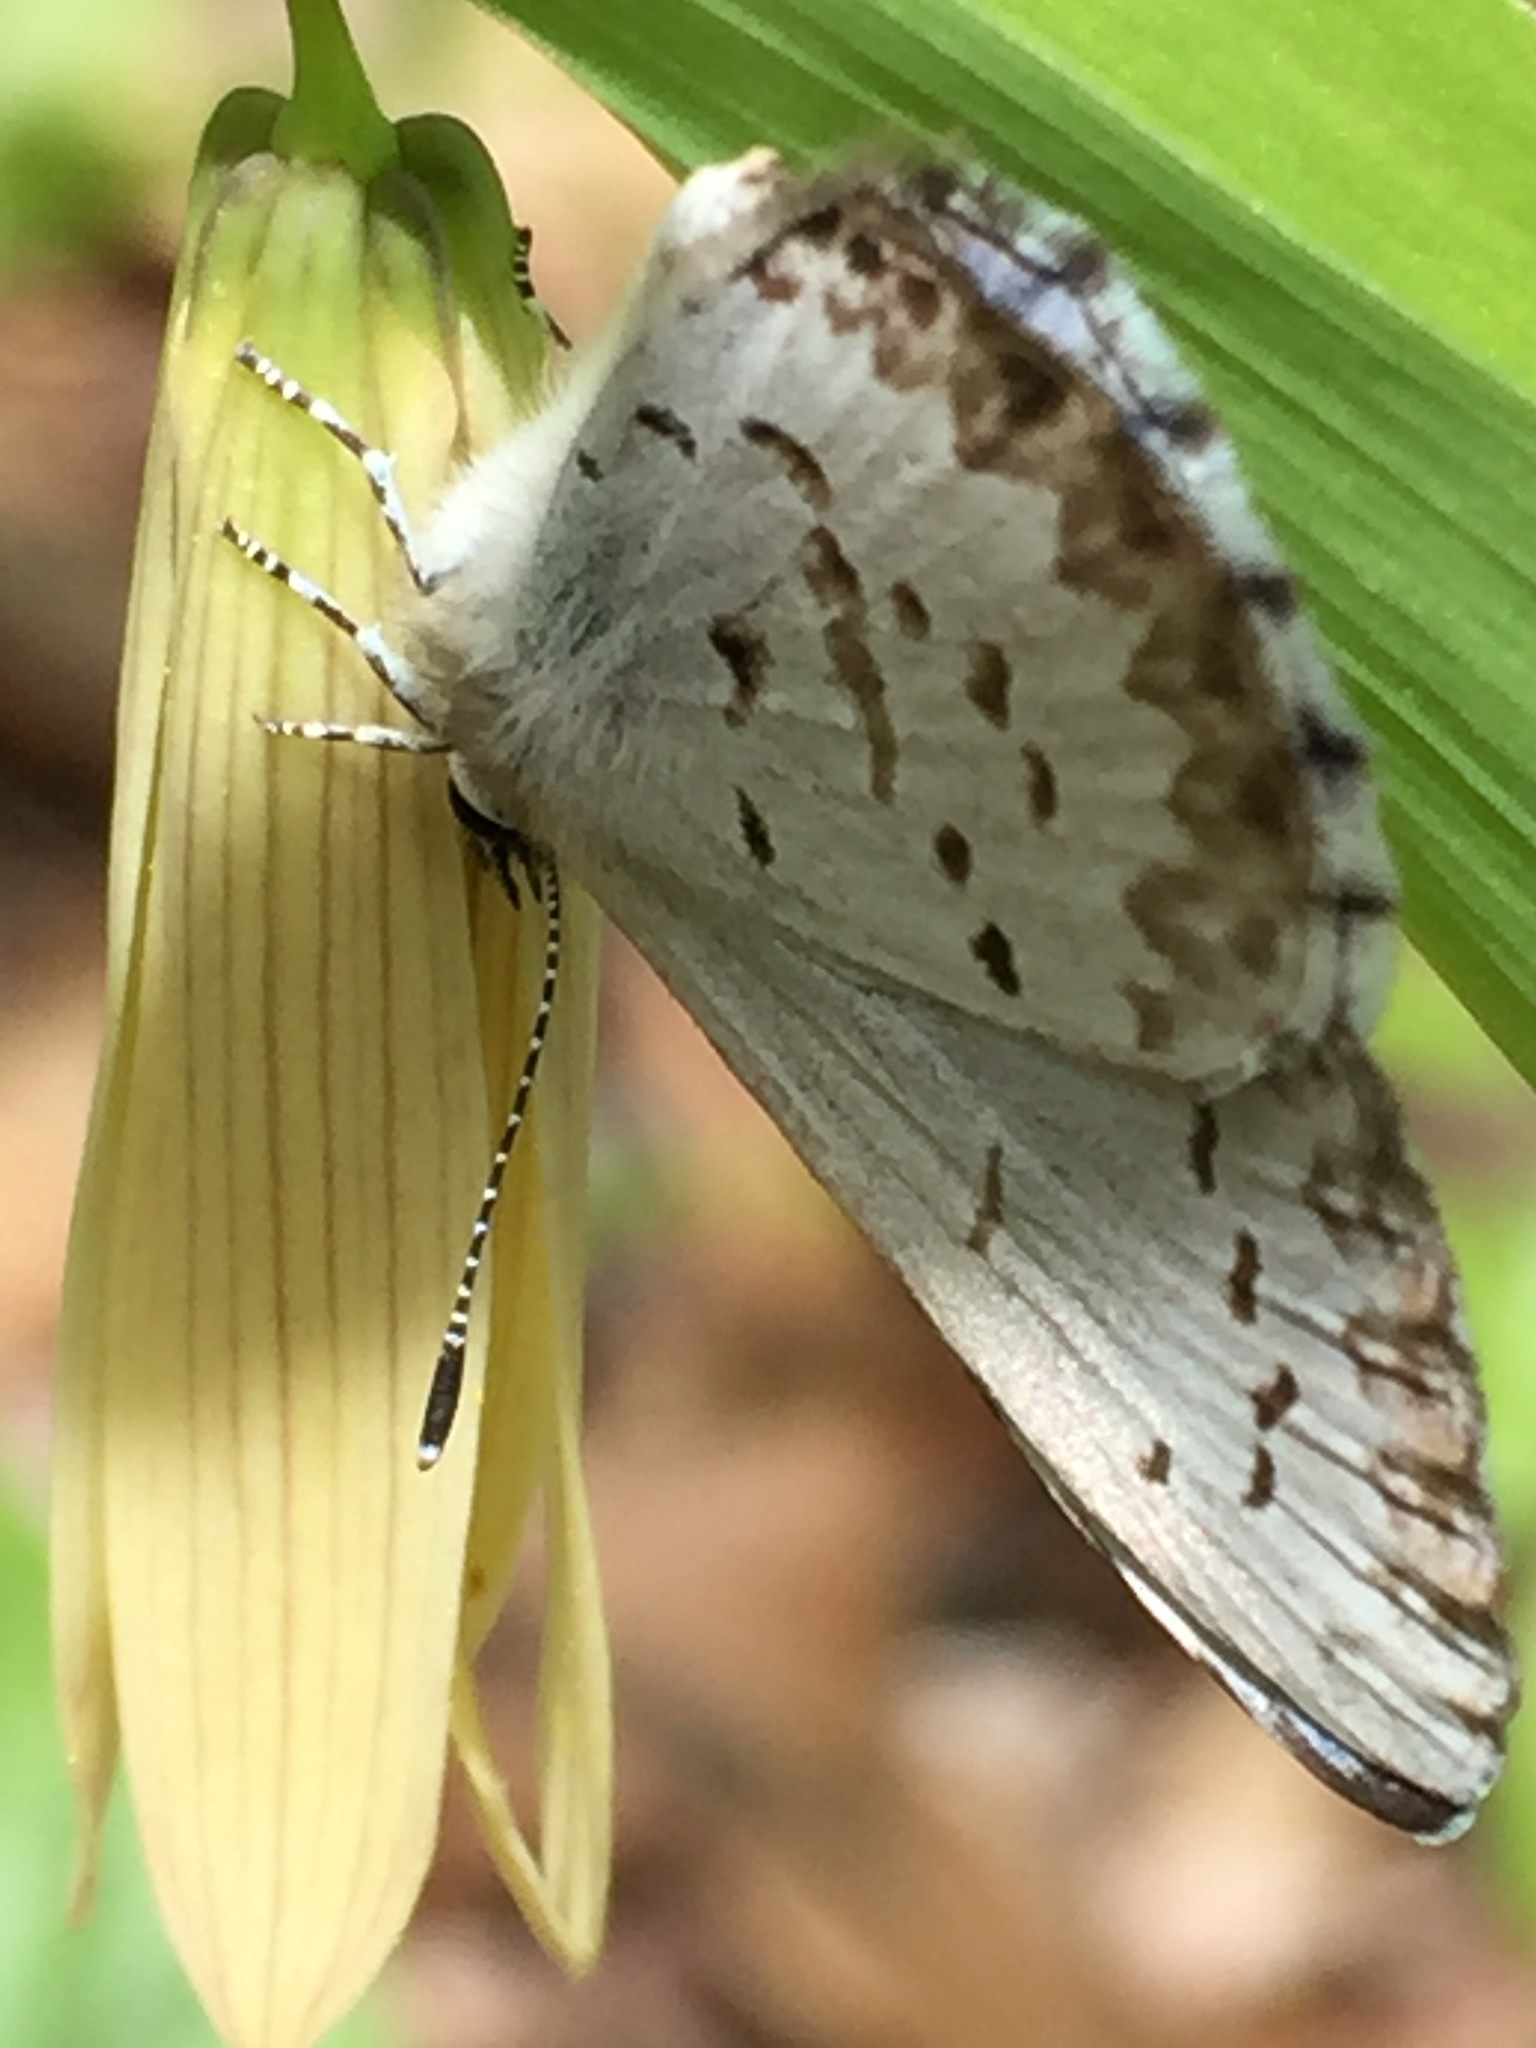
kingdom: Animalia
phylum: Arthropoda
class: Insecta
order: Lepidoptera
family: Lycaenidae
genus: Celastrina
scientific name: Celastrina lucia
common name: Lucia azure
